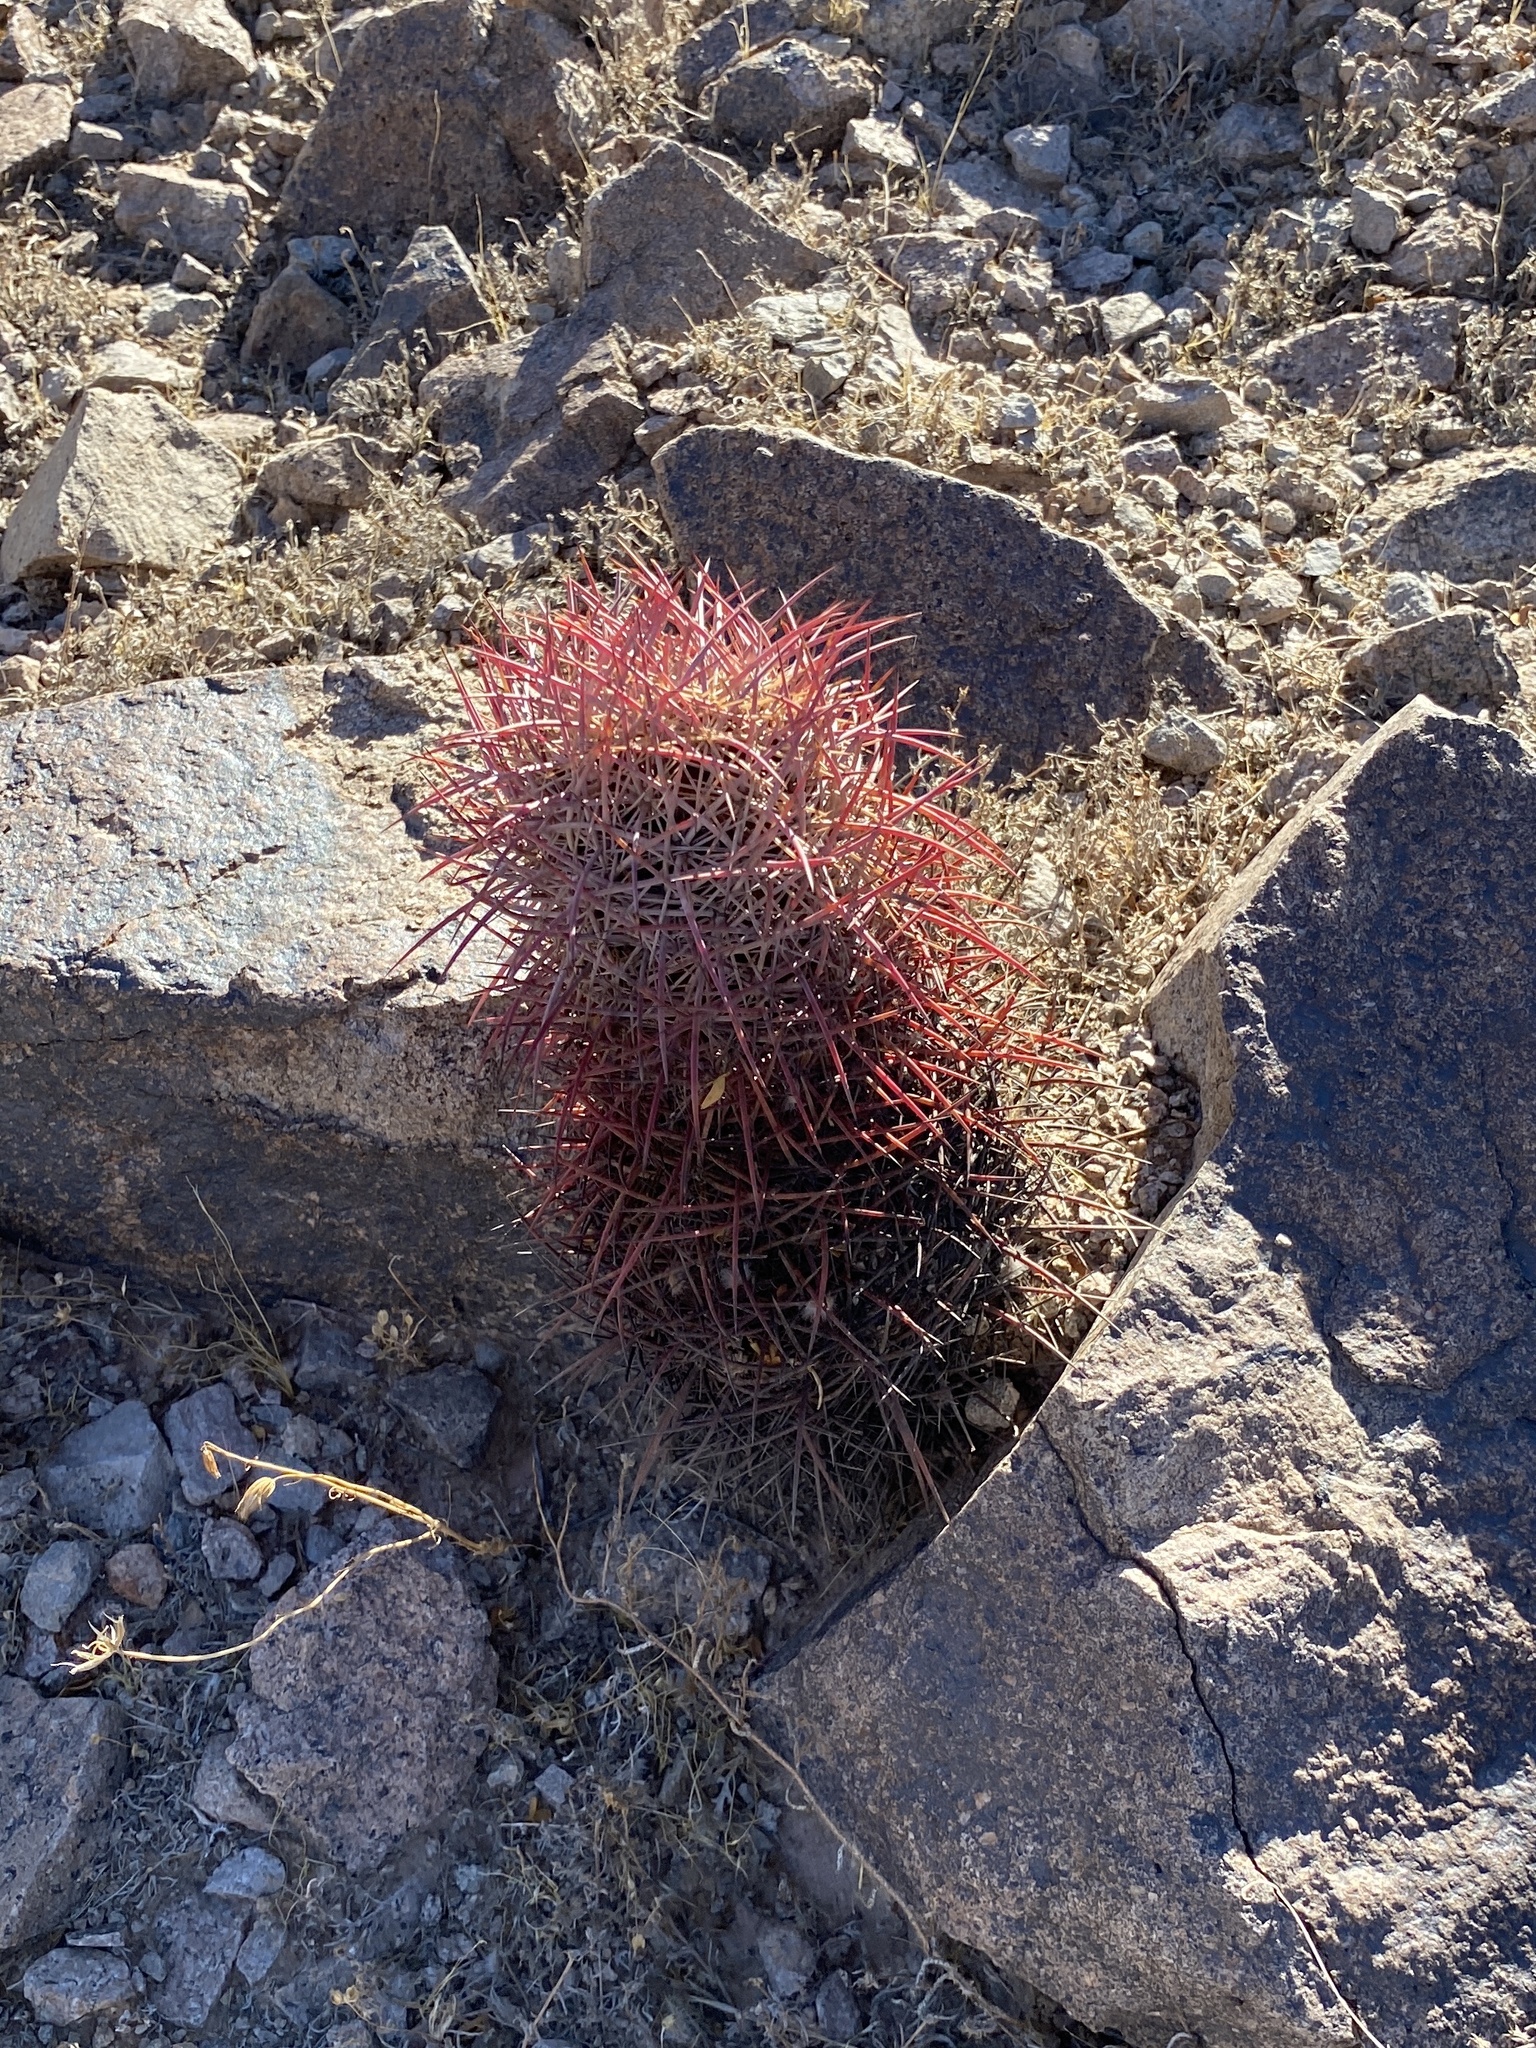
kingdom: Plantae
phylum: Tracheophyta
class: Magnoliopsida
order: Caryophyllales
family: Cactaceae
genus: Sclerocactus
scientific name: Sclerocactus johnsonii
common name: Eight-spine fishhook cactus
